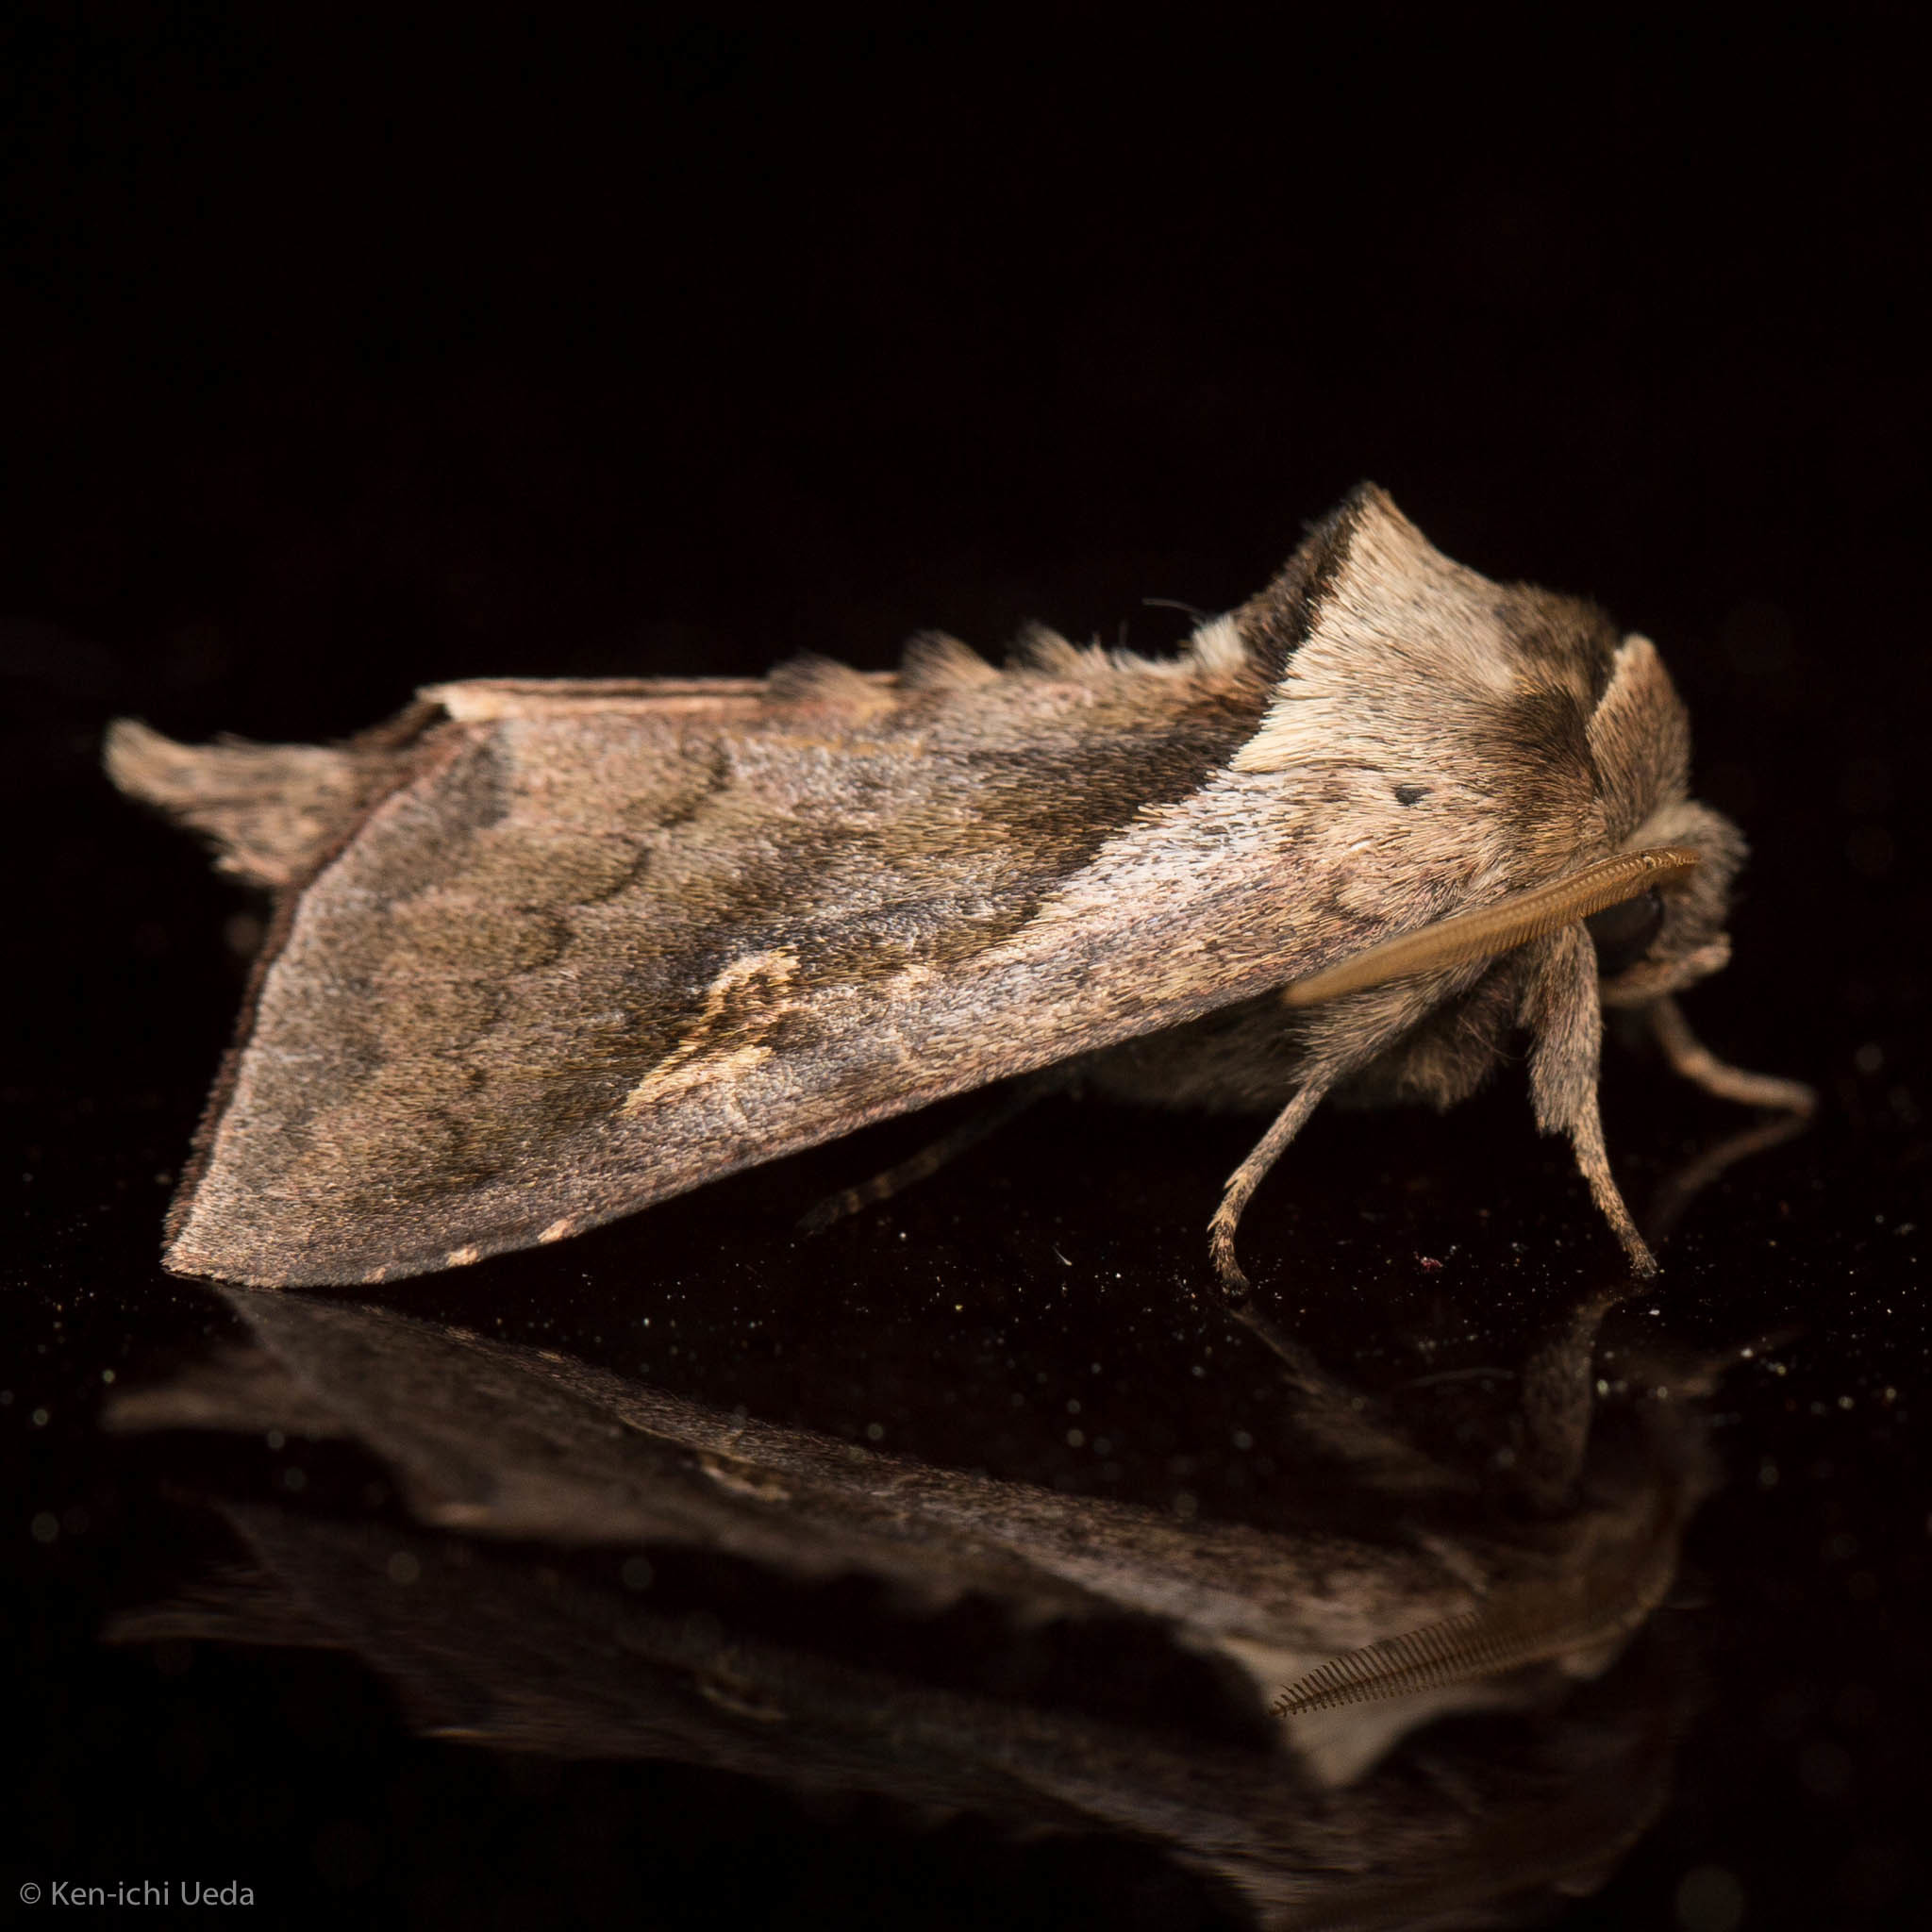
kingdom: Animalia
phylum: Arthropoda
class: Insecta
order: Lepidoptera
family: Noctuidae
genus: Bellura
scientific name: Bellura
